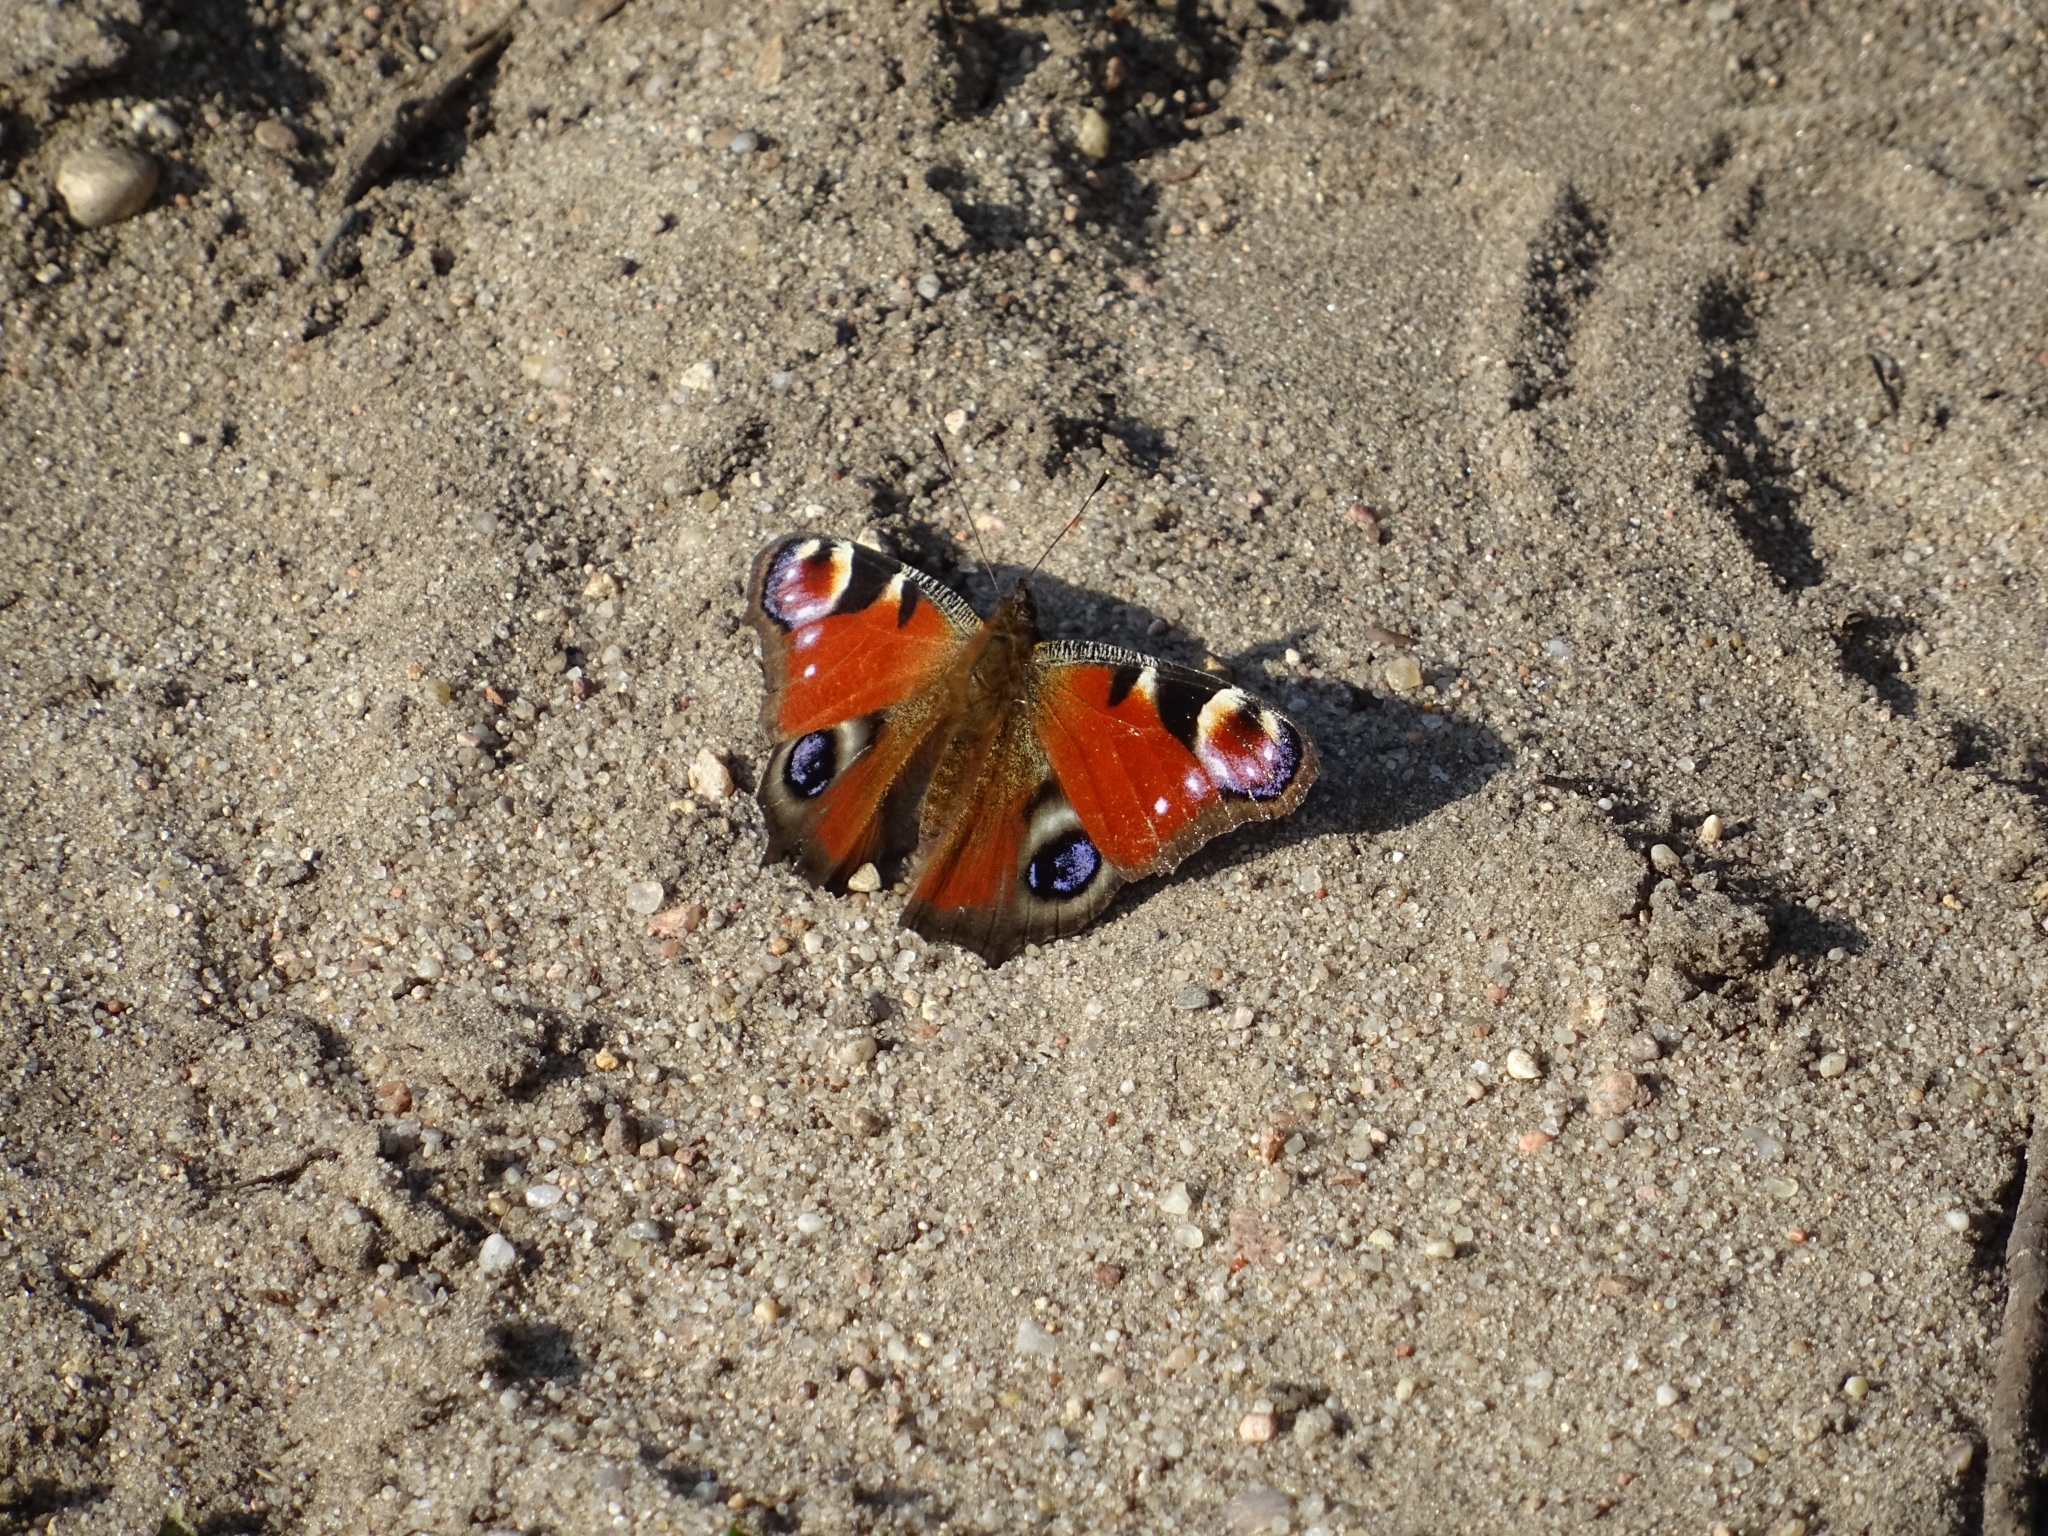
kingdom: Animalia
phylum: Arthropoda
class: Insecta
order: Lepidoptera
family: Nymphalidae
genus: Aglais
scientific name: Aglais io
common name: Peacock
